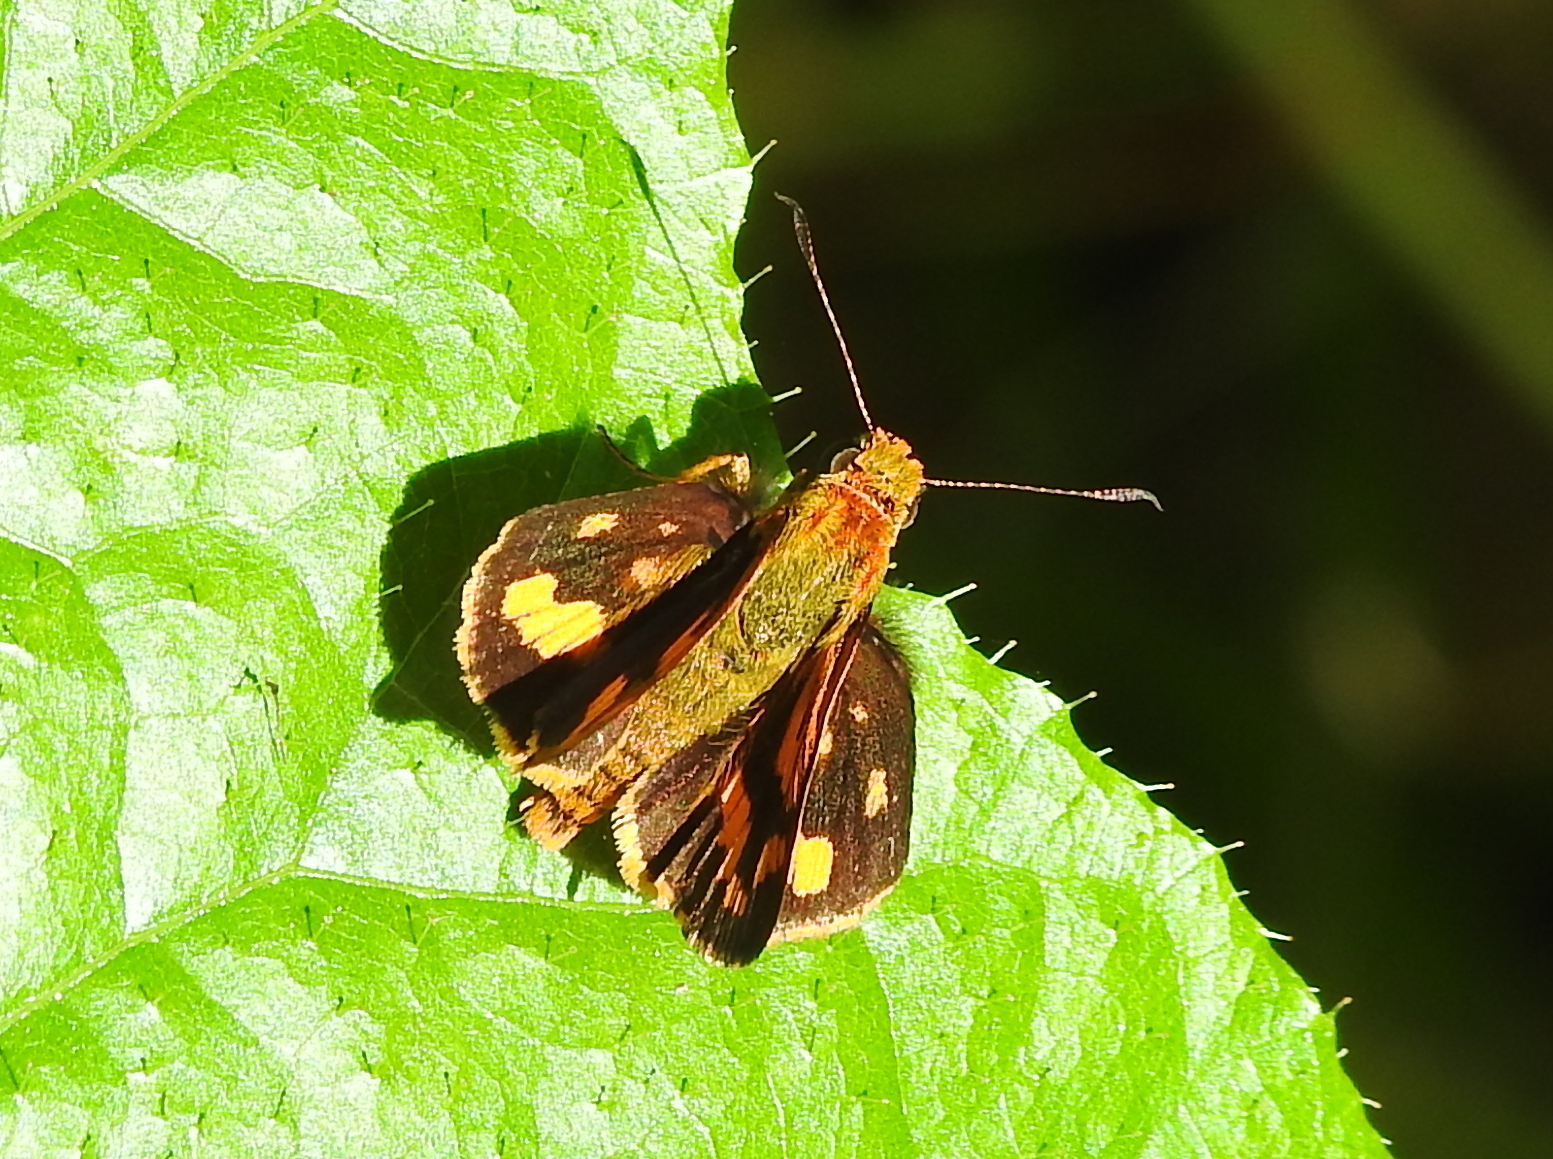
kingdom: Animalia
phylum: Arthropoda
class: Insecta
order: Lepidoptera
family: Hesperiidae
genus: Potanthus
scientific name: Potanthus omaha
